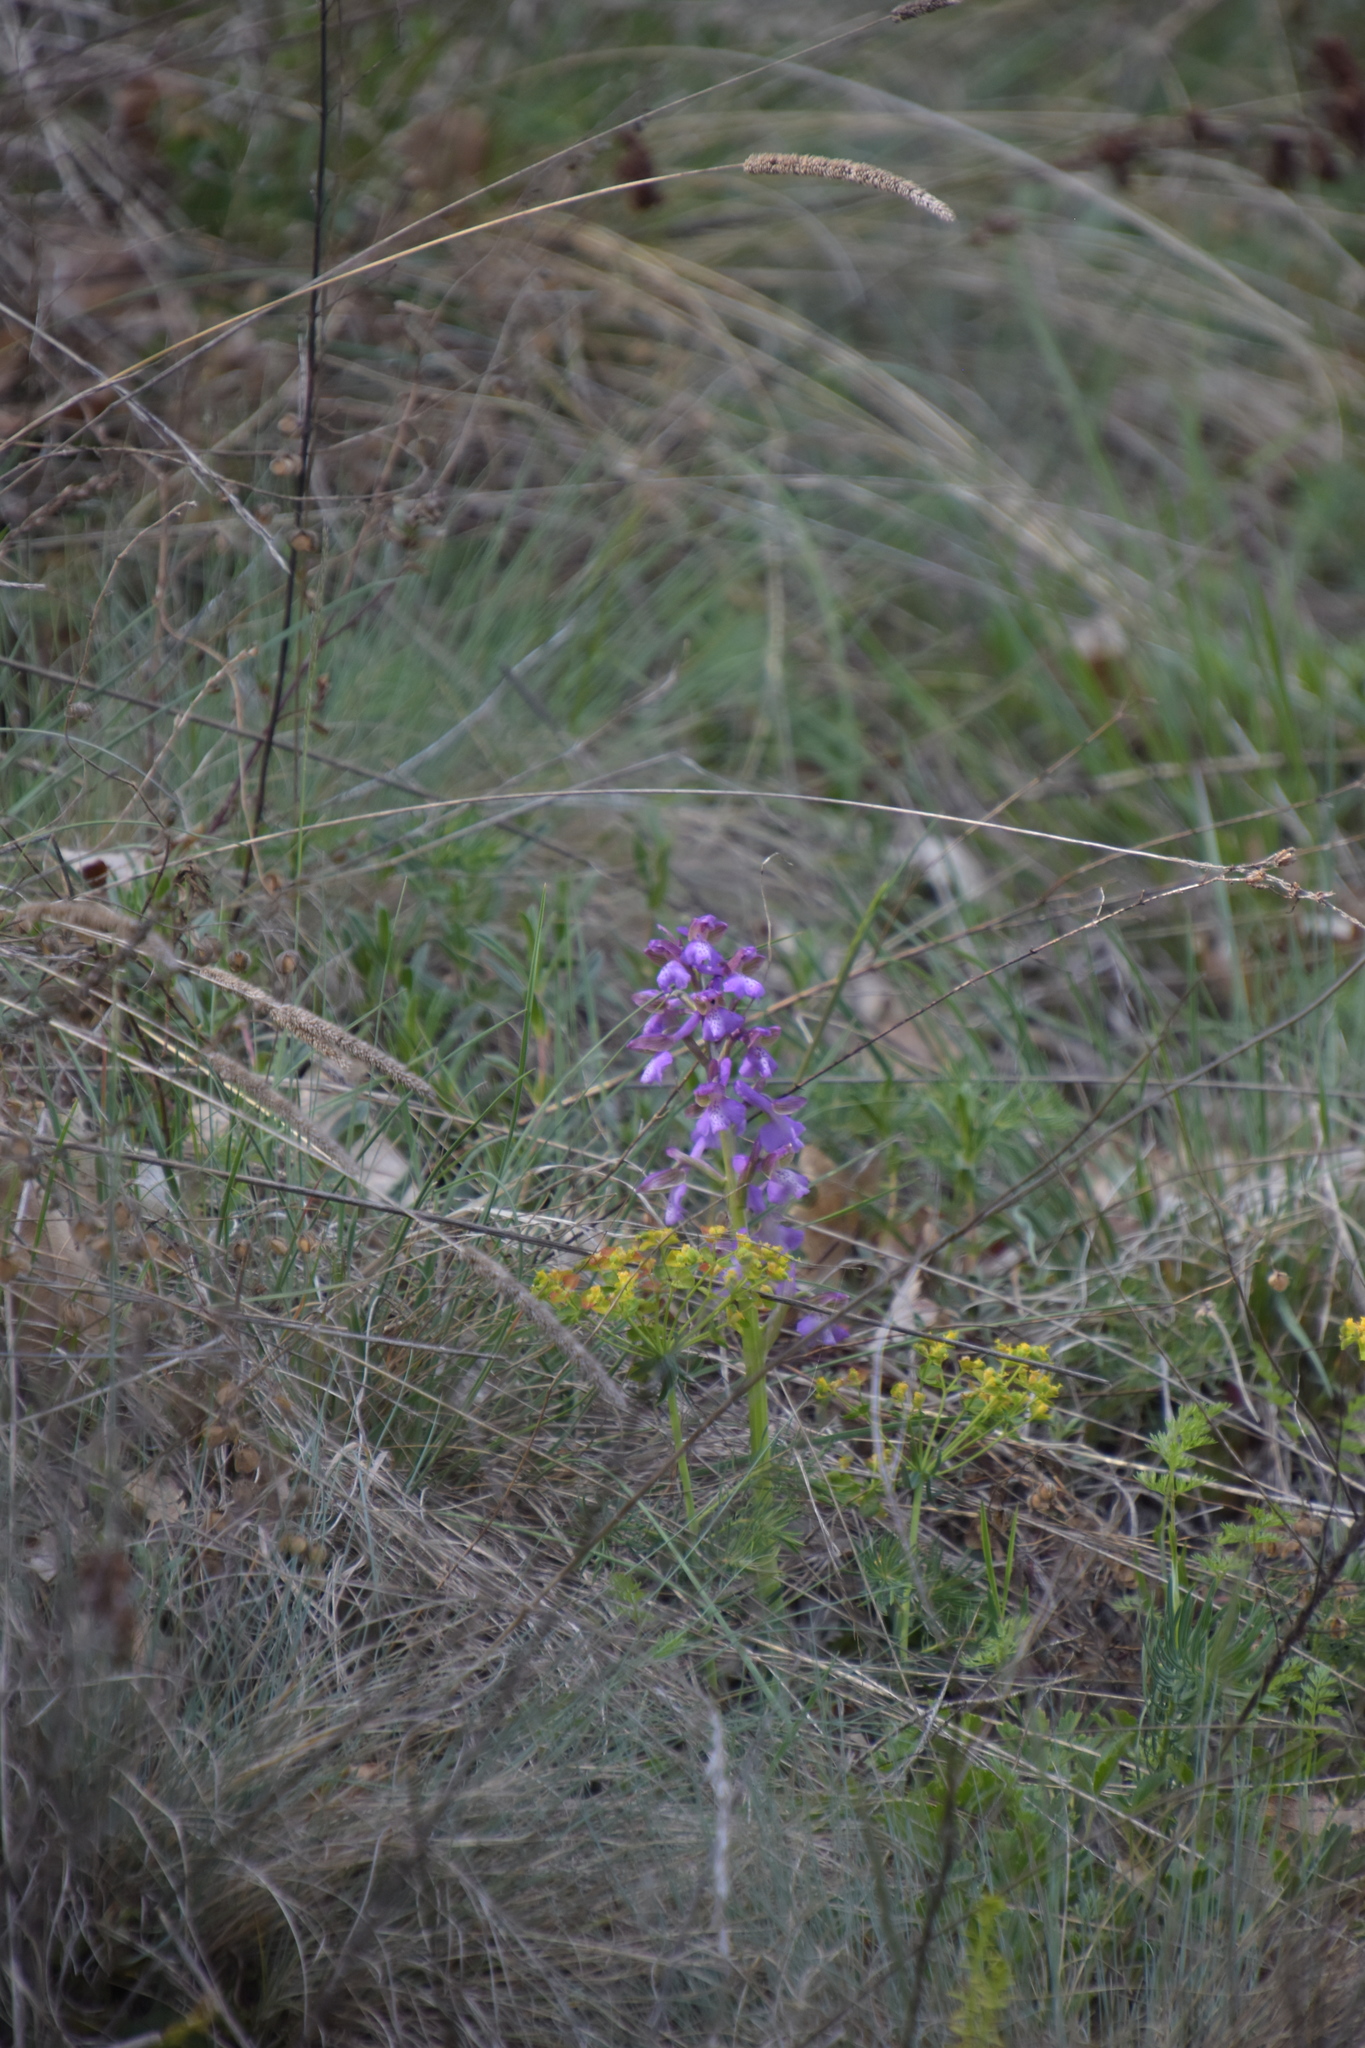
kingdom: Plantae
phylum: Tracheophyta
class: Liliopsida
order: Asparagales
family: Orchidaceae
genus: Anacamptis
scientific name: Anacamptis morio
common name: Green-winged orchid
